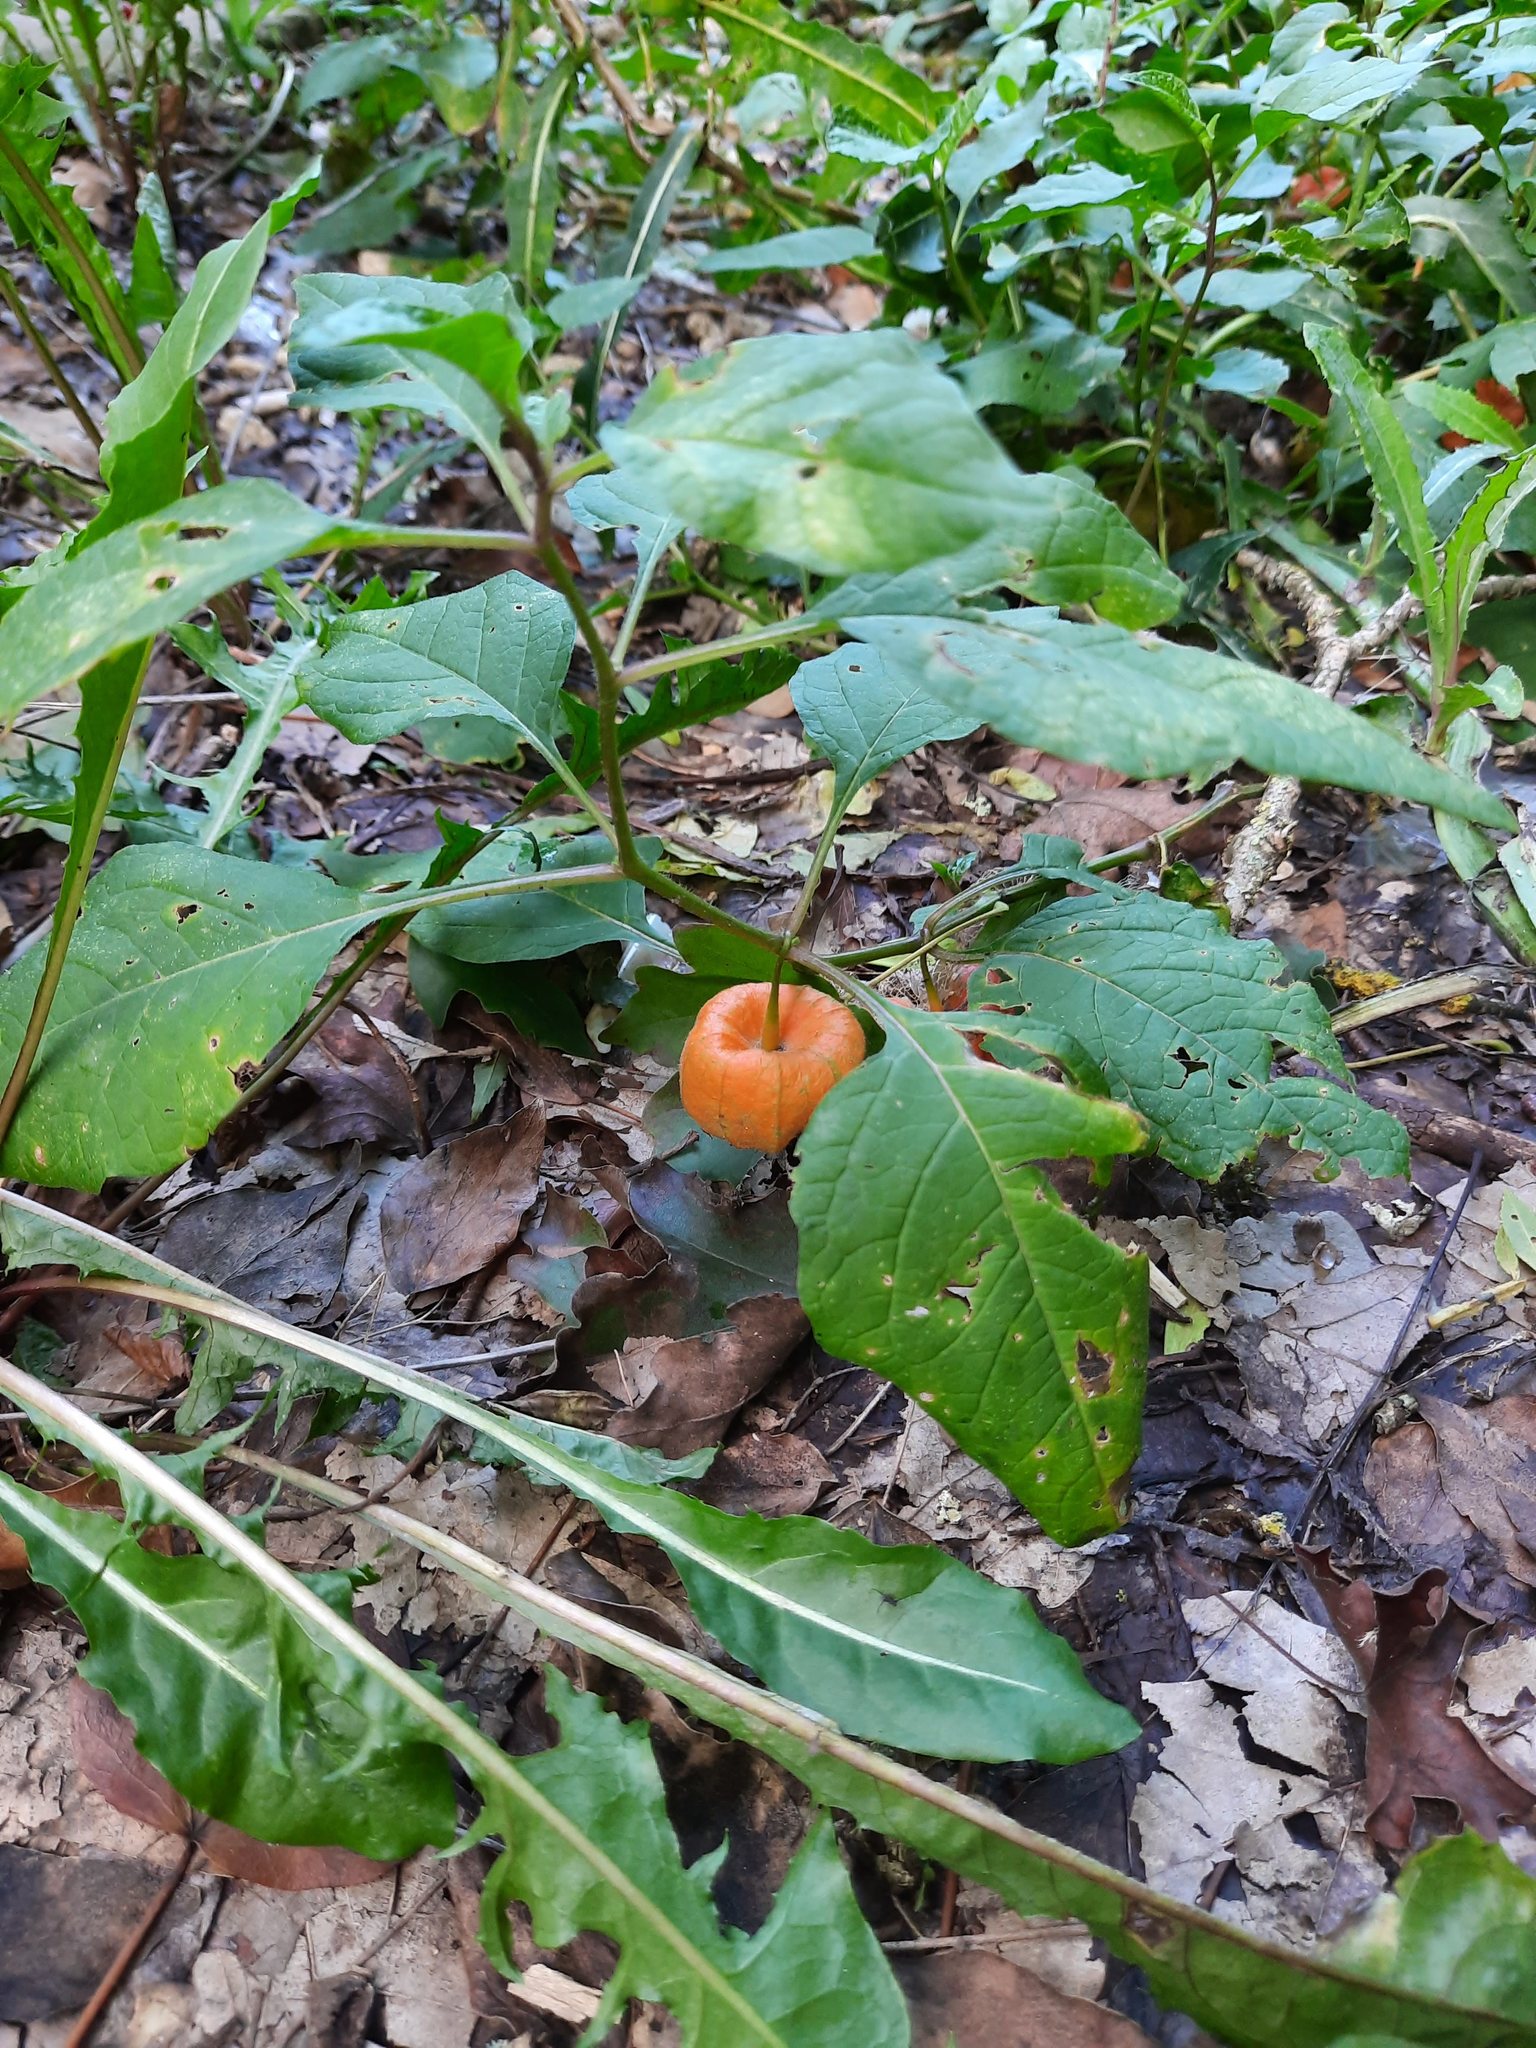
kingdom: Plantae
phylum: Tracheophyta
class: Magnoliopsida
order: Solanales
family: Solanaceae
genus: Alkekengi
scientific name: Alkekengi officinarum
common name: Japanese-lantern
